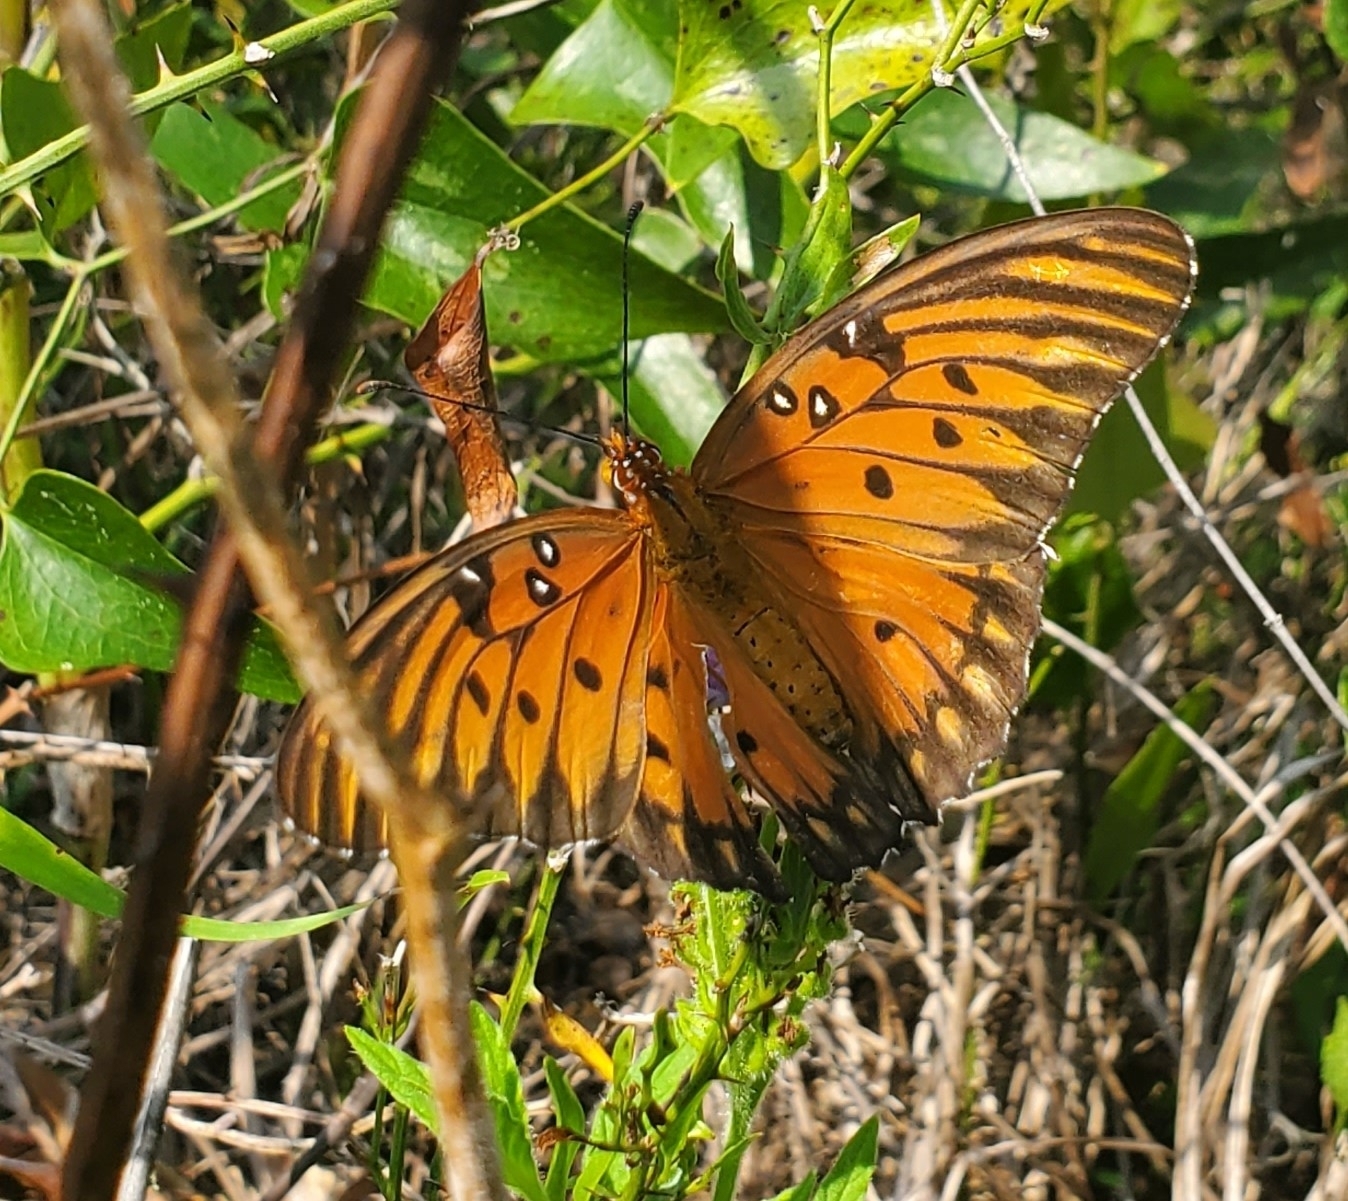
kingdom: Animalia
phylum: Arthropoda
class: Insecta
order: Lepidoptera
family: Nymphalidae
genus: Dione
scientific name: Dione vanillae
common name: Gulf fritillary
